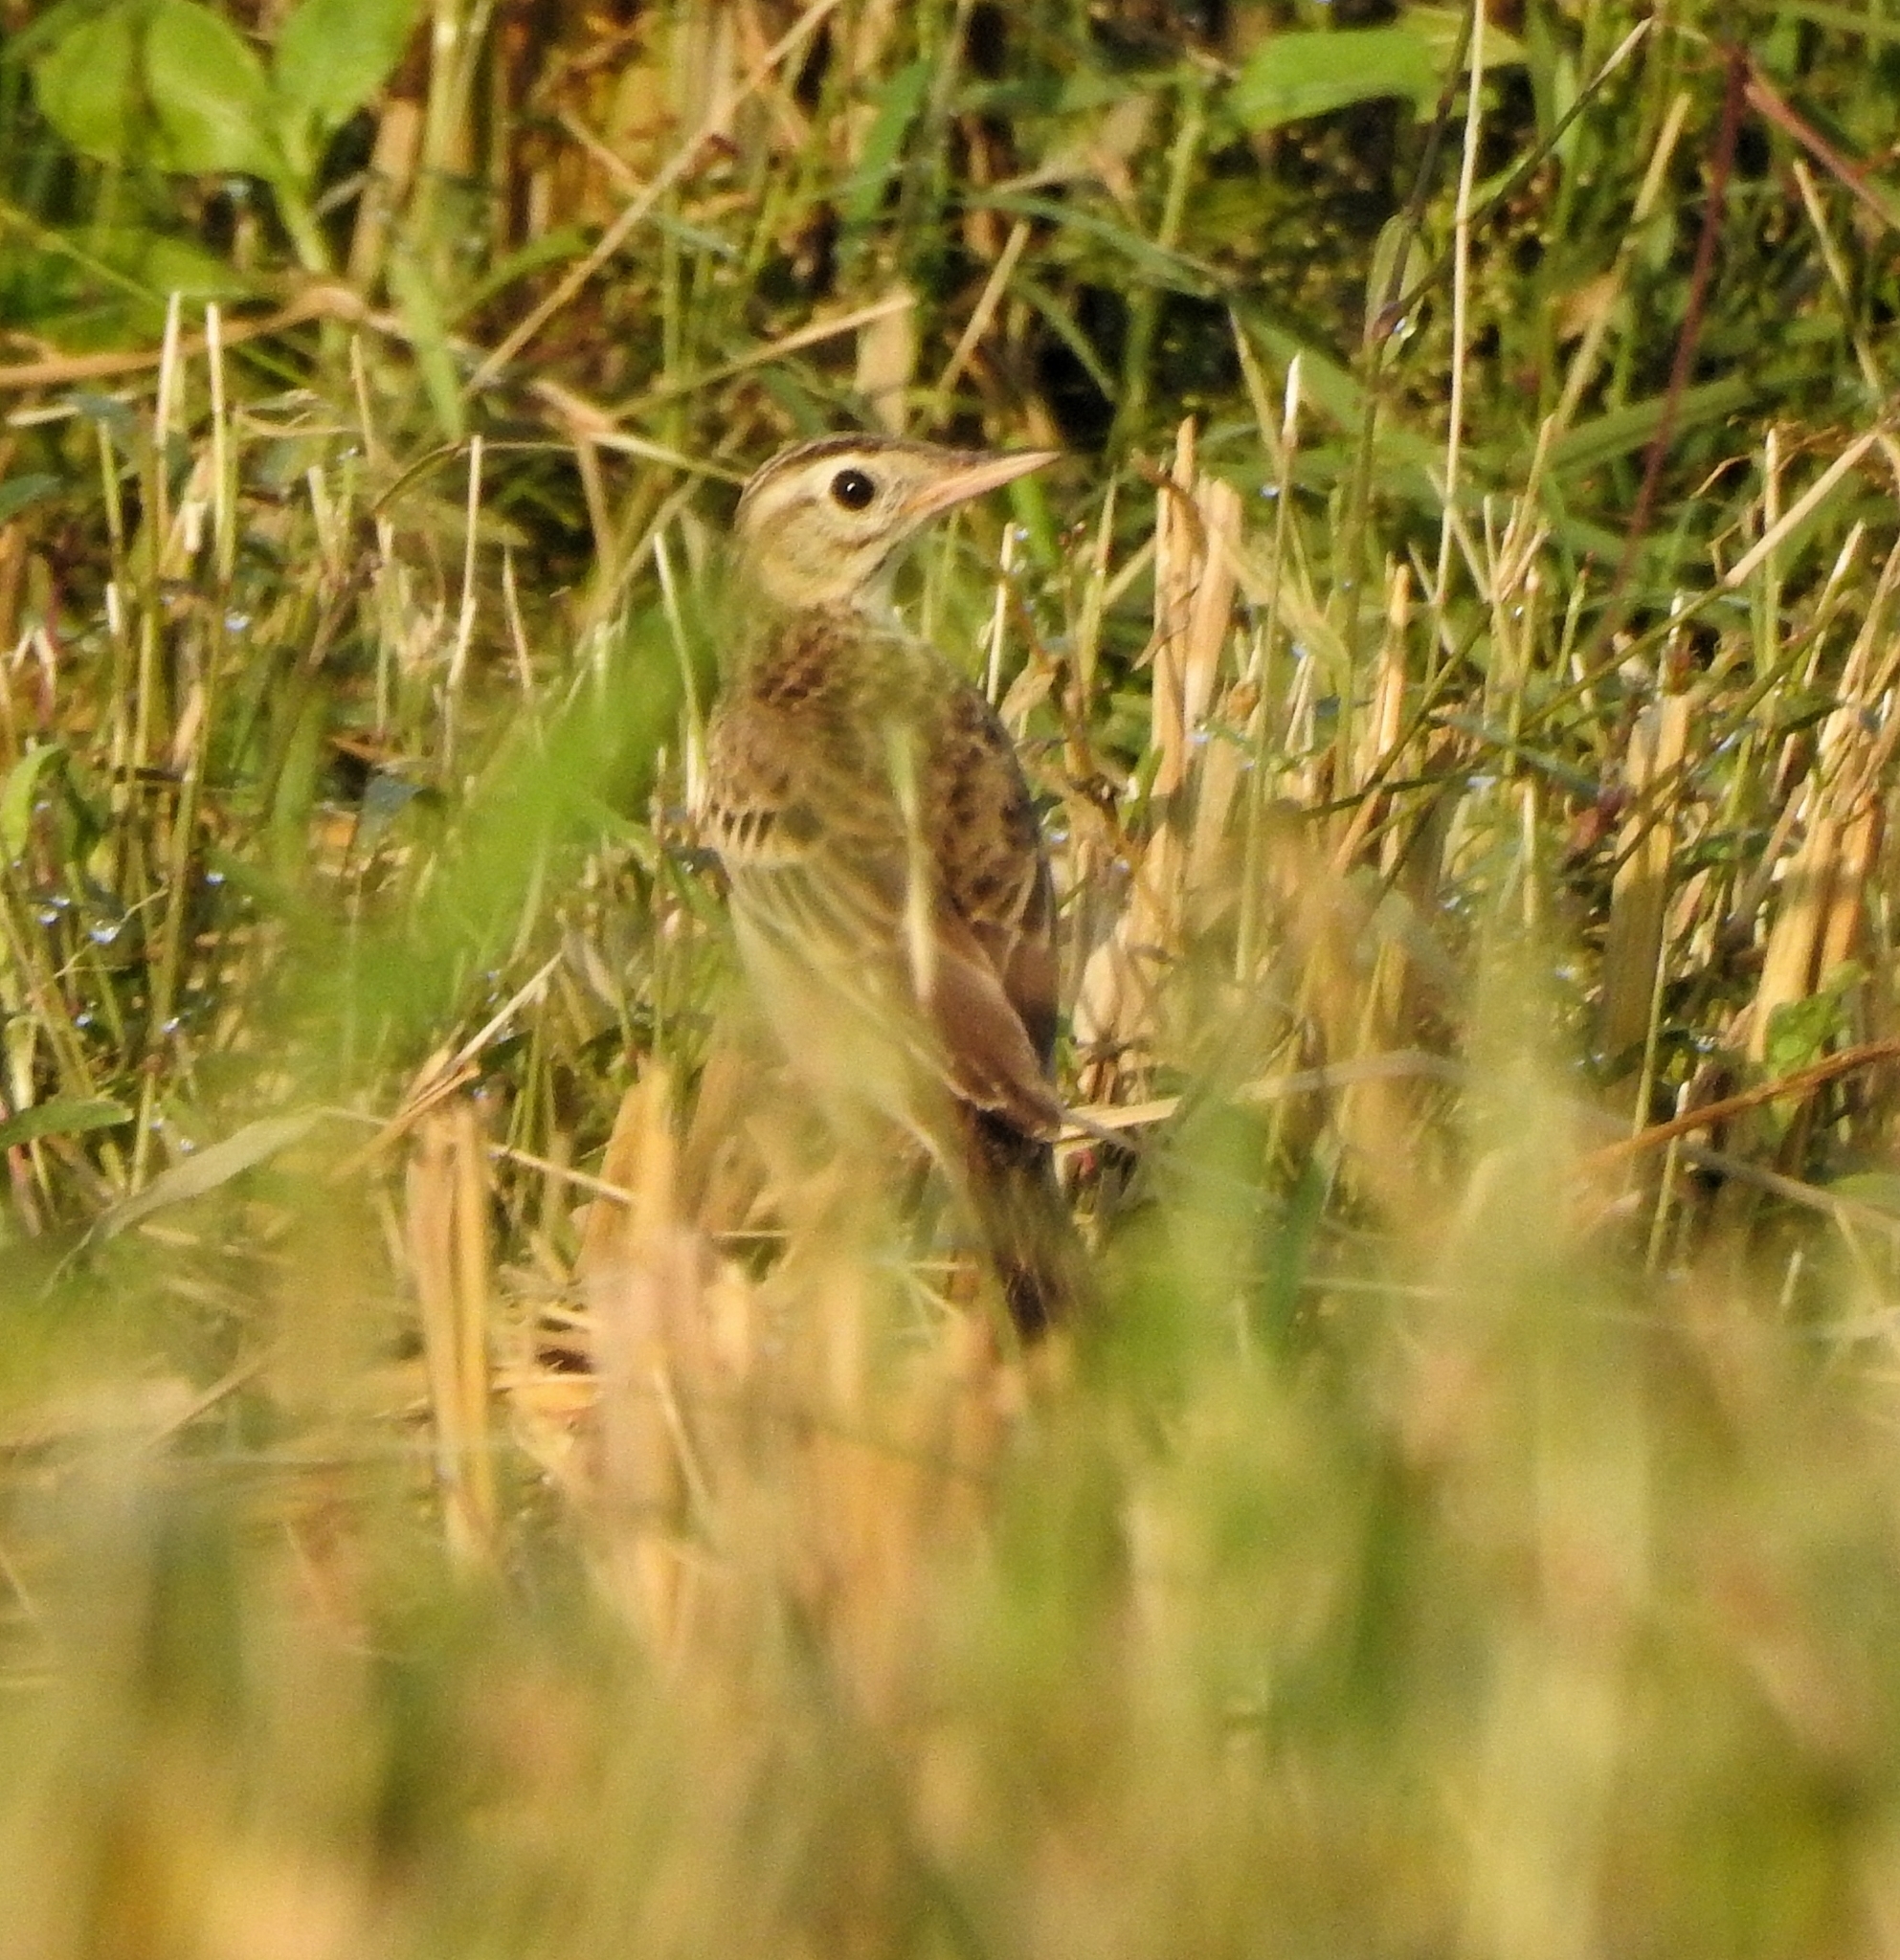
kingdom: Animalia
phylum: Chordata
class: Aves
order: Passeriformes
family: Motacillidae
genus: Anthus
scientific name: Anthus richardi
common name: Richard's pipit
